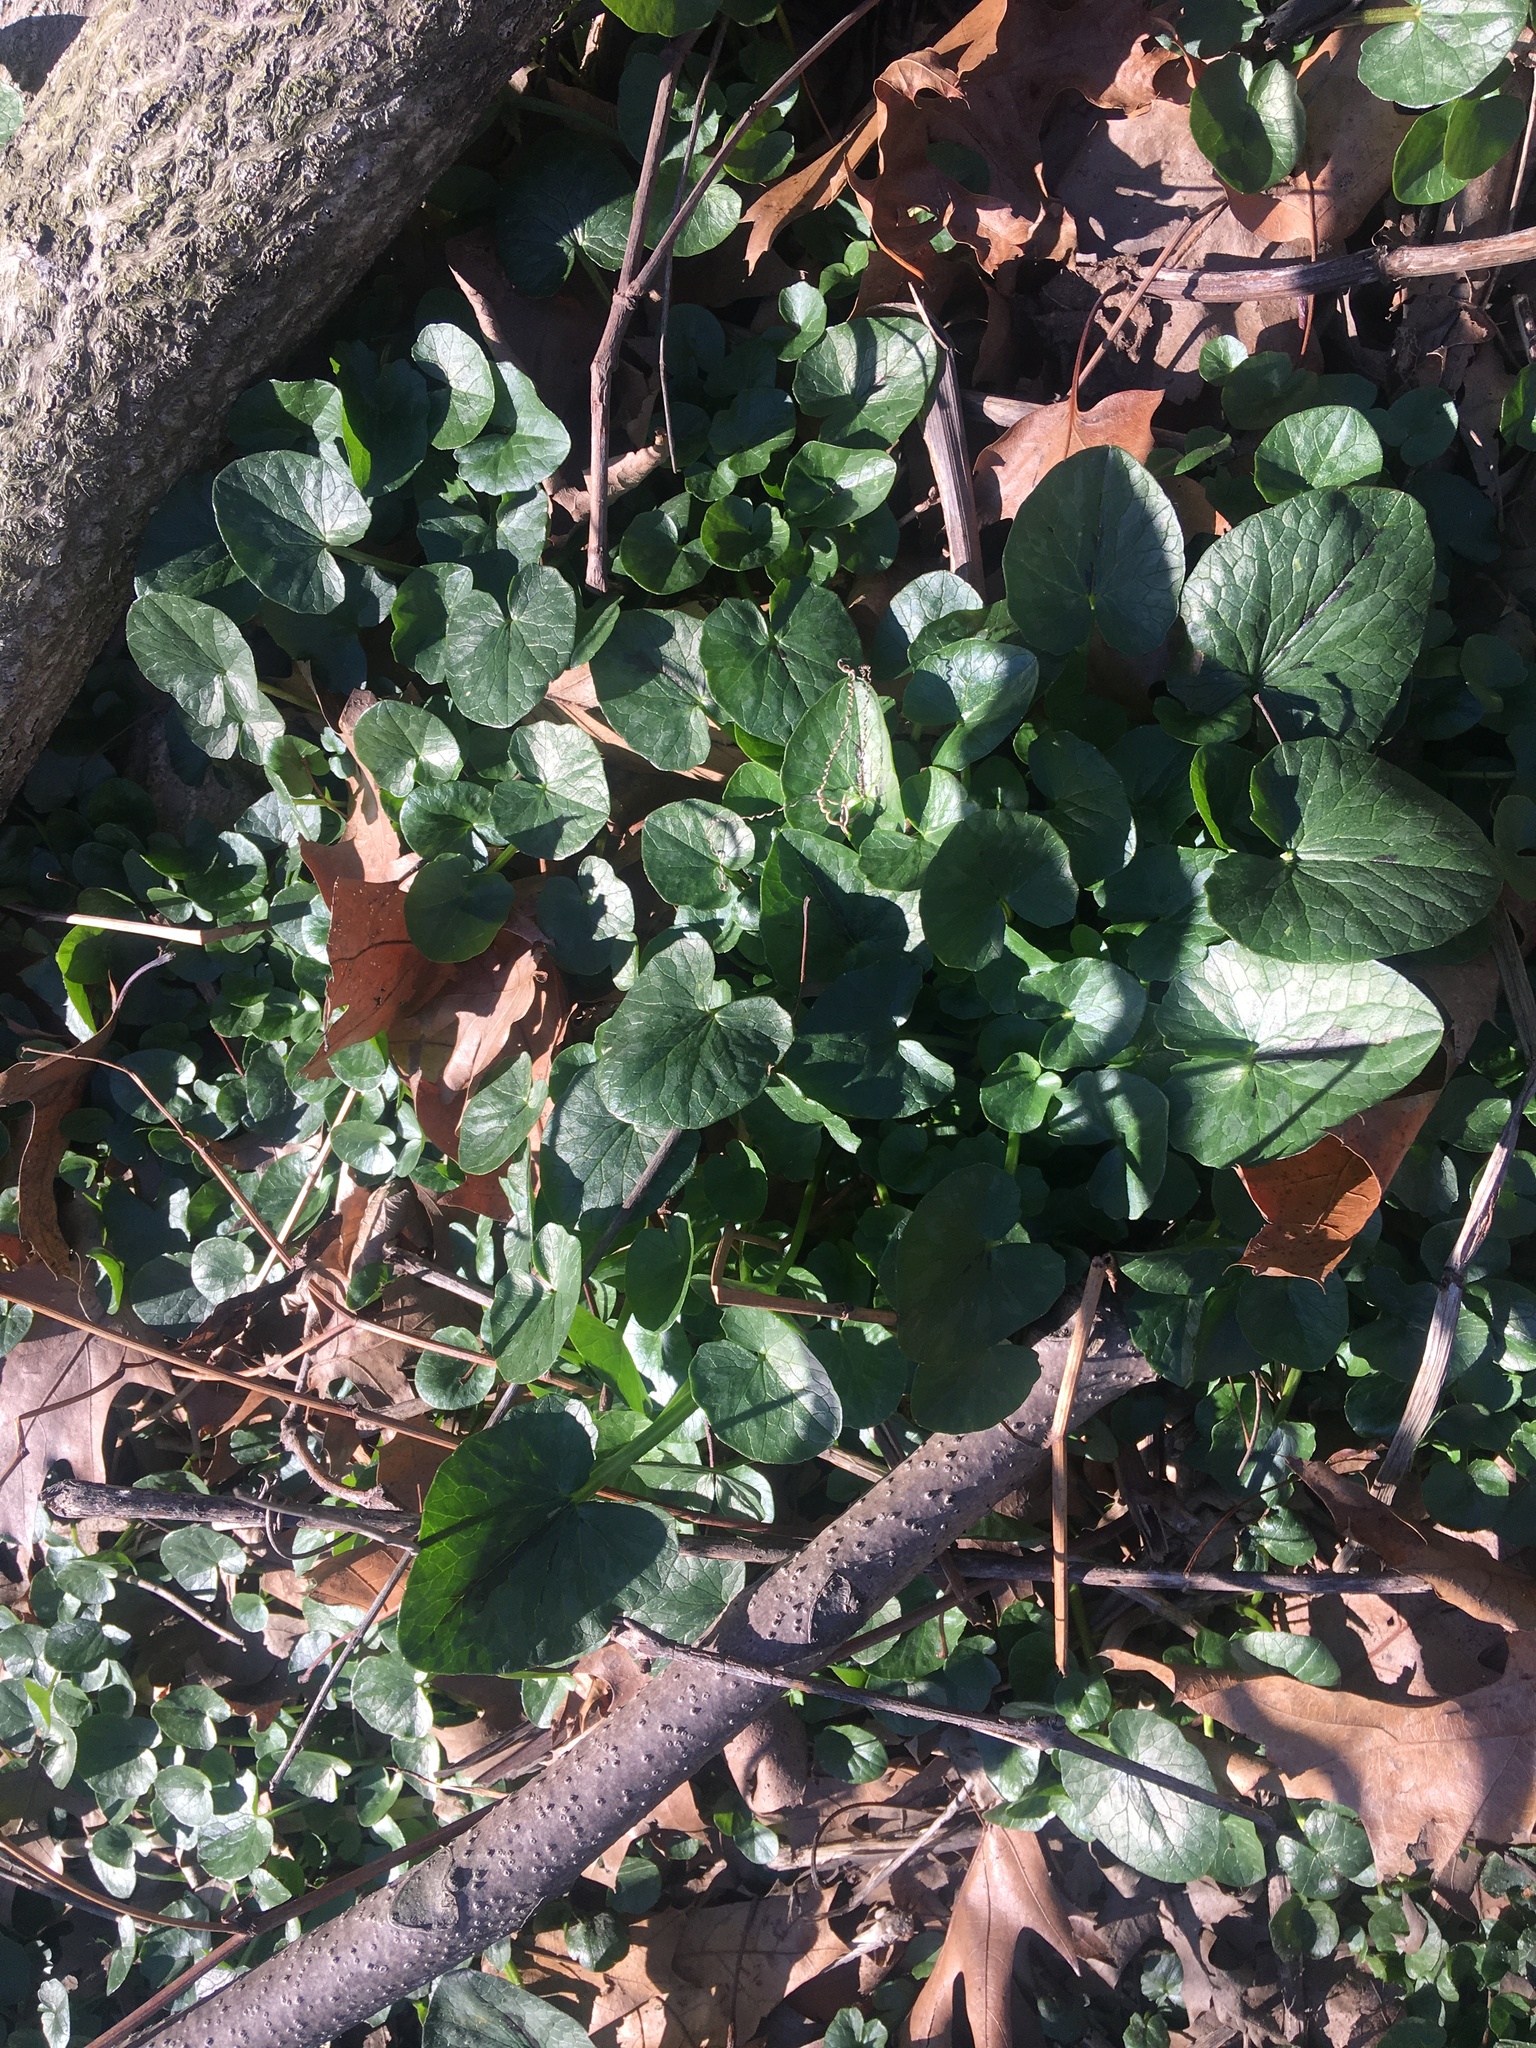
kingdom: Plantae
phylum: Tracheophyta
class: Magnoliopsida
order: Ranunculales
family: Ranunculaceae
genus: Ficaria
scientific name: Ficaria verna
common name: Lesser celandine
